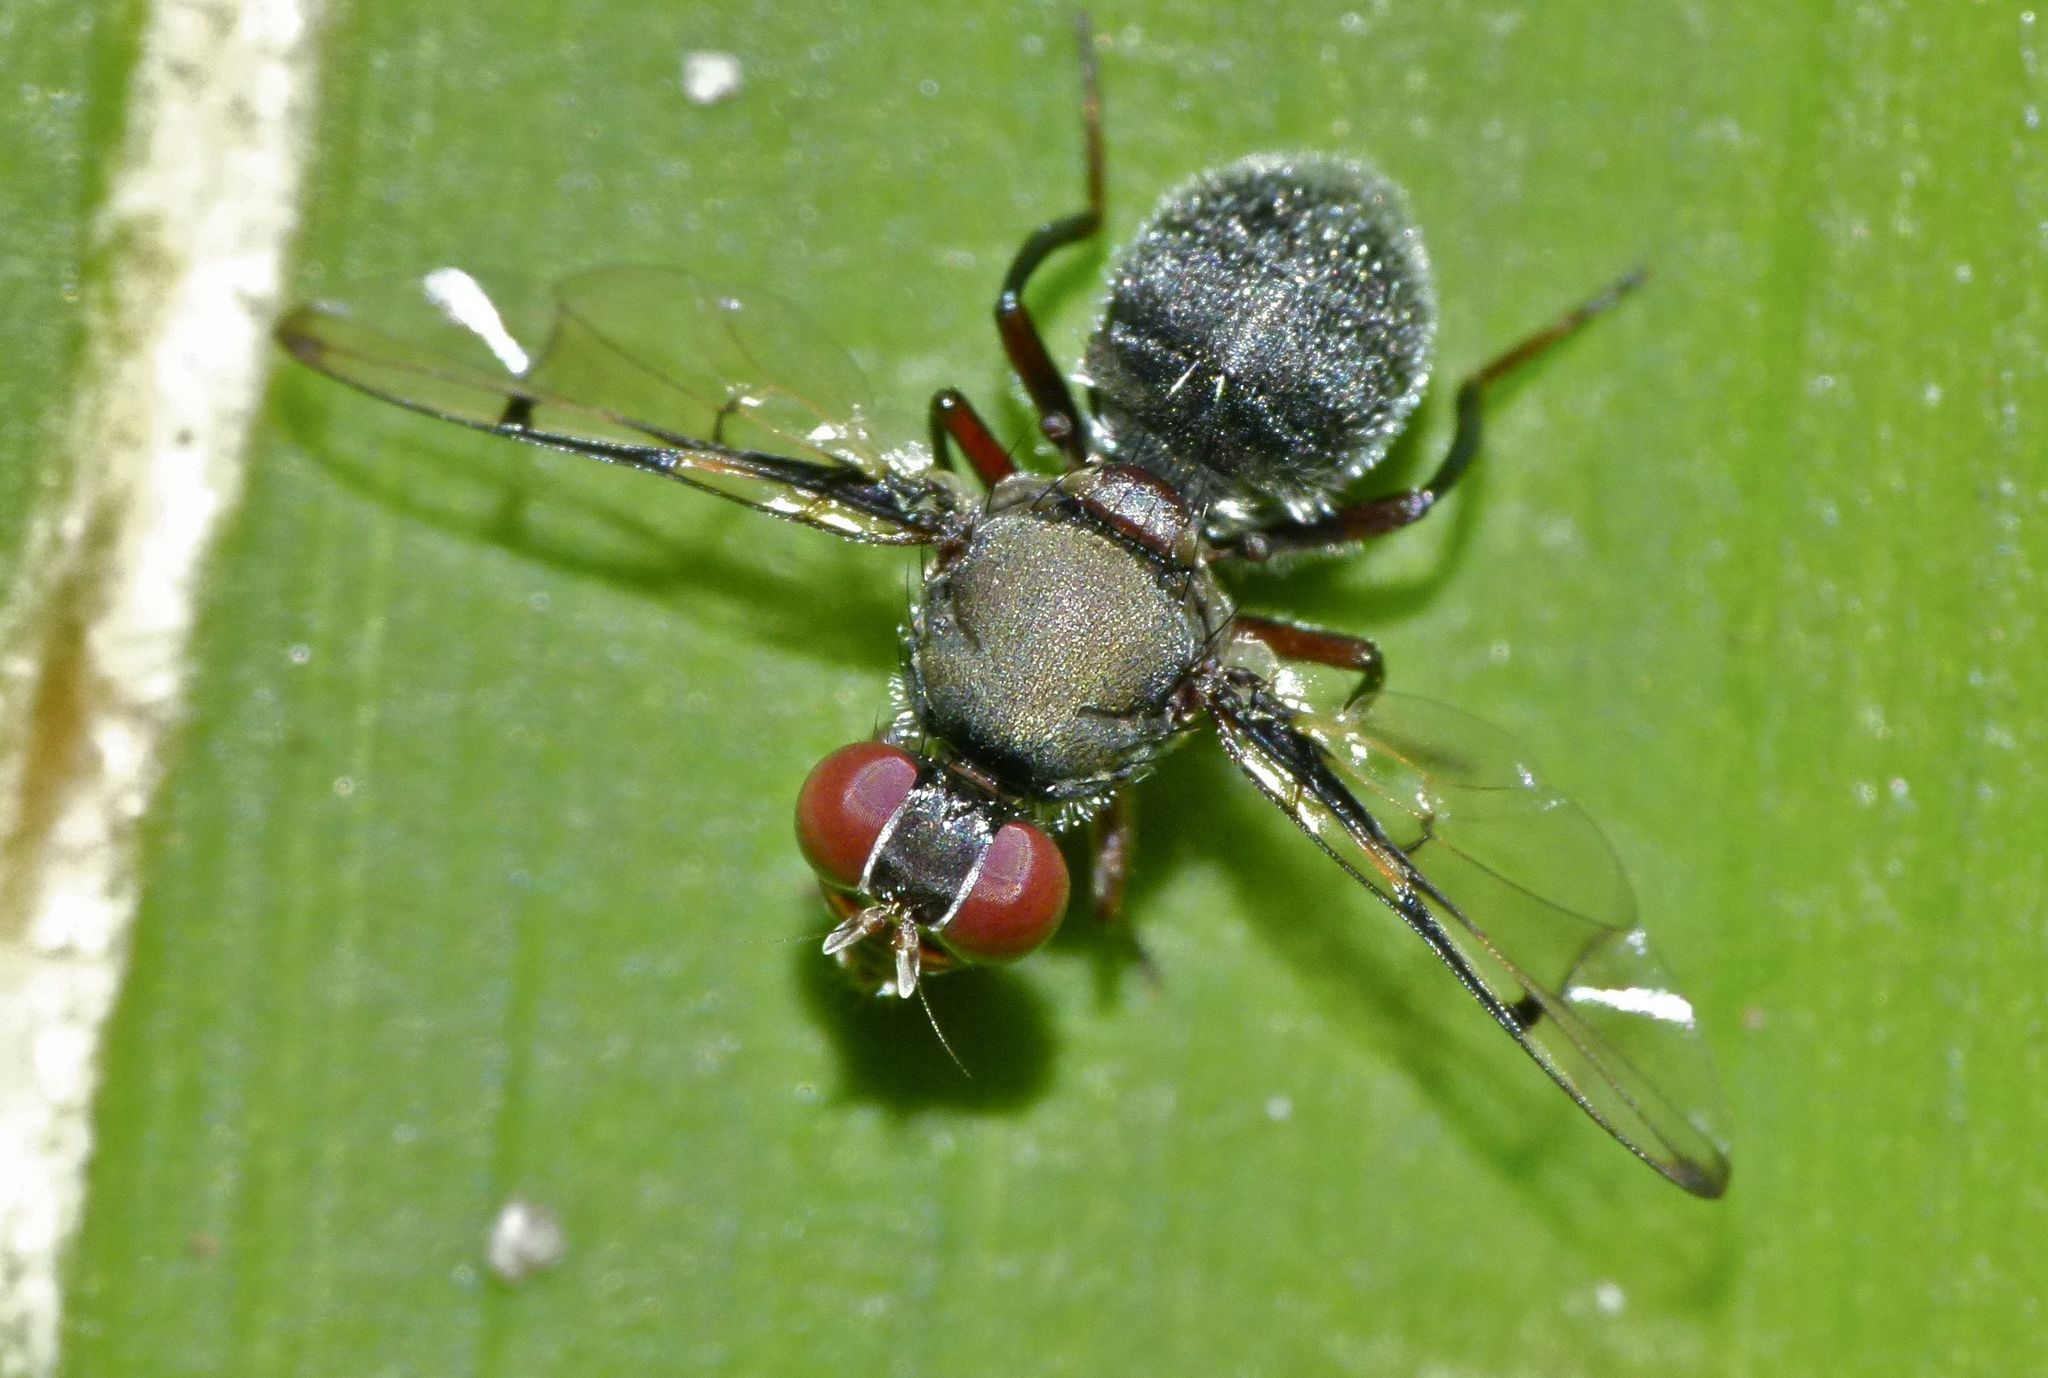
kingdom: Animalia
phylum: Arthropoda
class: Insecta
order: Diptera
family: Platystomatidae
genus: Pogonortalis
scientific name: Pogonortalis doclea
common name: Boatman fly
